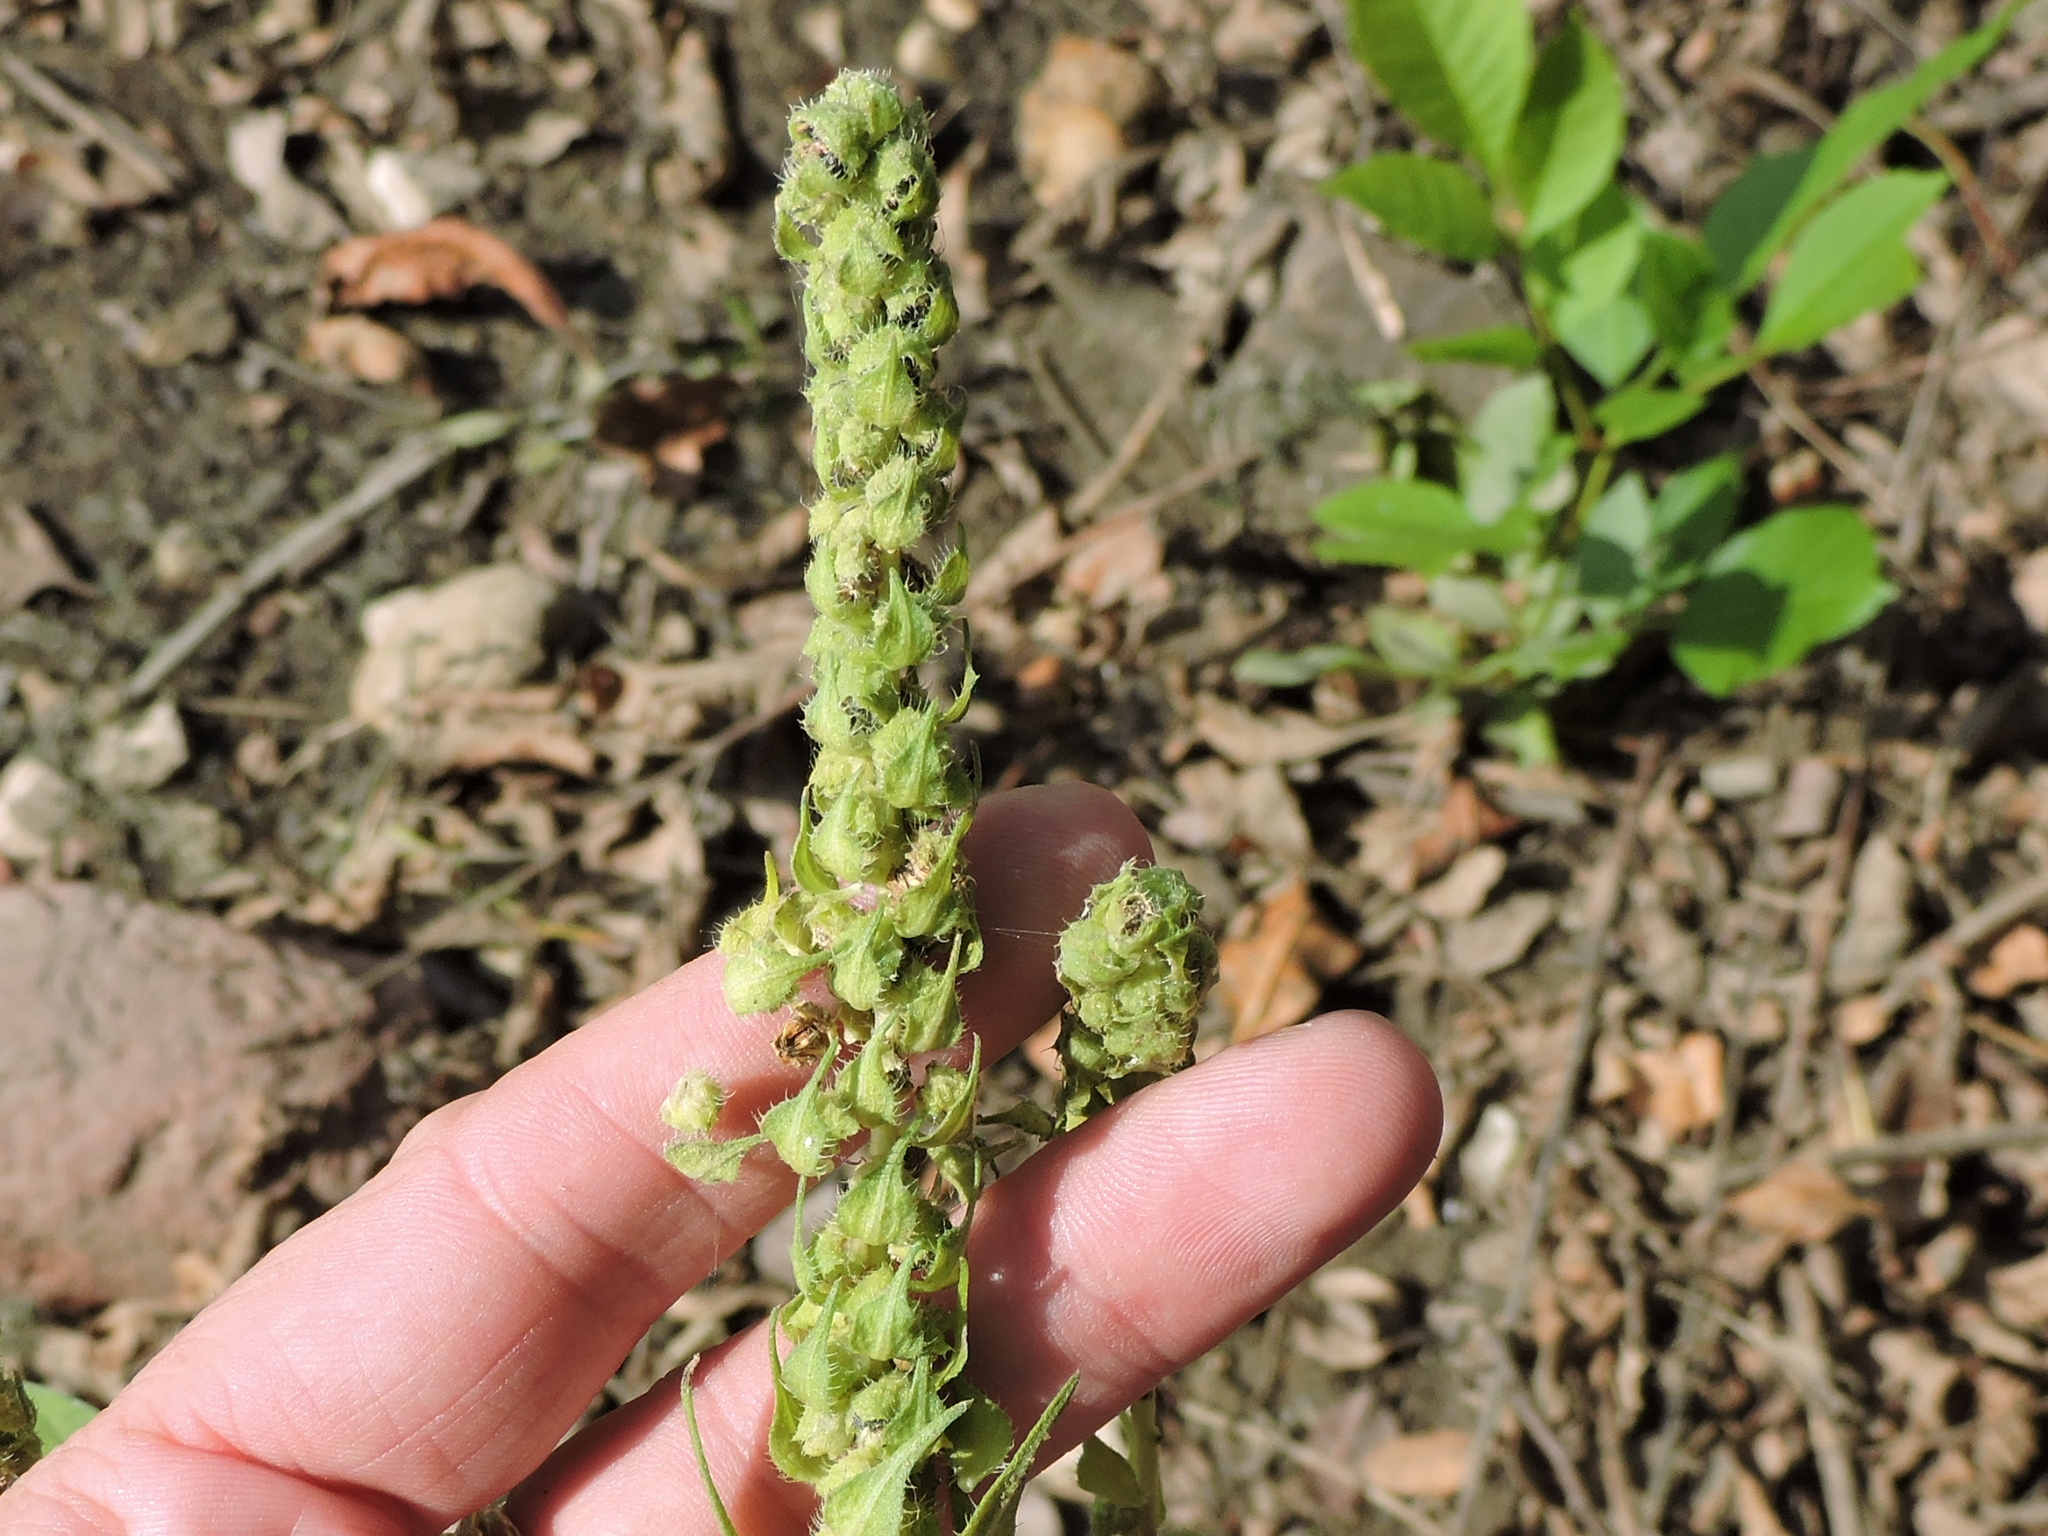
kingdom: Plantae
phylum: Tracheophyta
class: Magnoliopsida
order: Asterales
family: Asteraceae
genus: Iva
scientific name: Iva annua
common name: Marsh-elder
